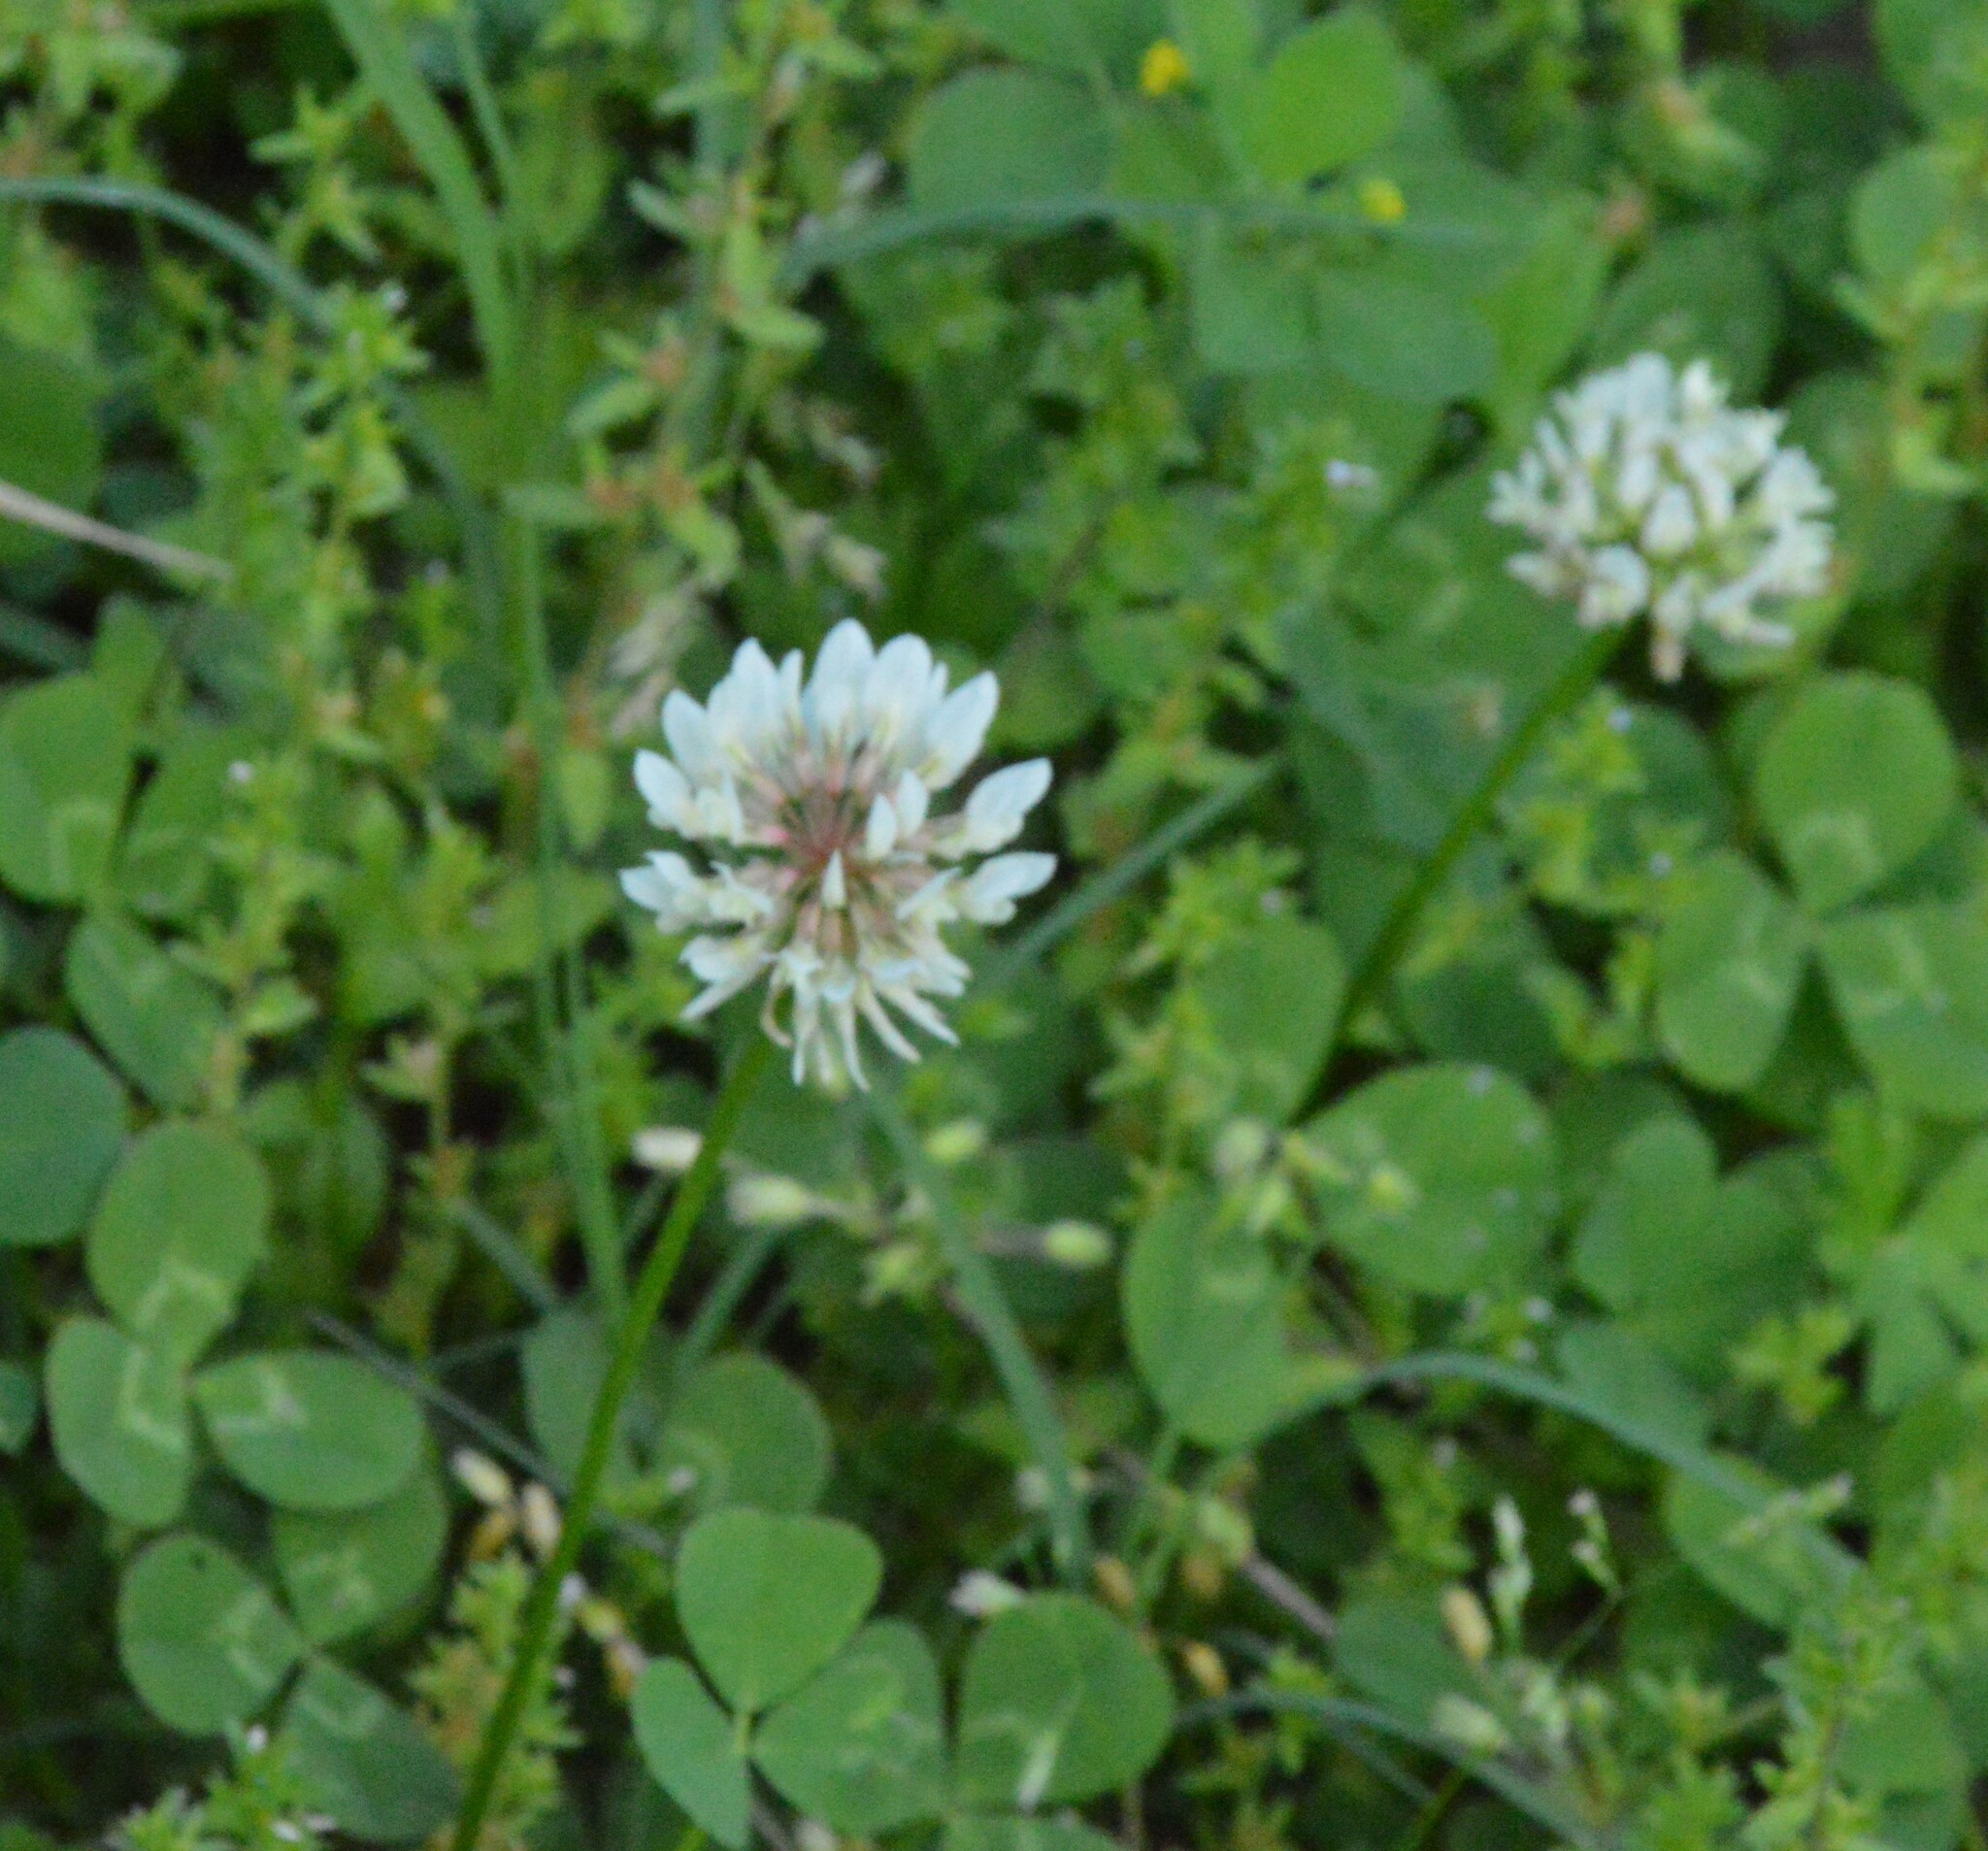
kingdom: Plantae
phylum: Tracheophyta
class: Magnoliopsida
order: Fabales
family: Fabaceae
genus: Trifolium
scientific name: Trifolium repens
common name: White clover
